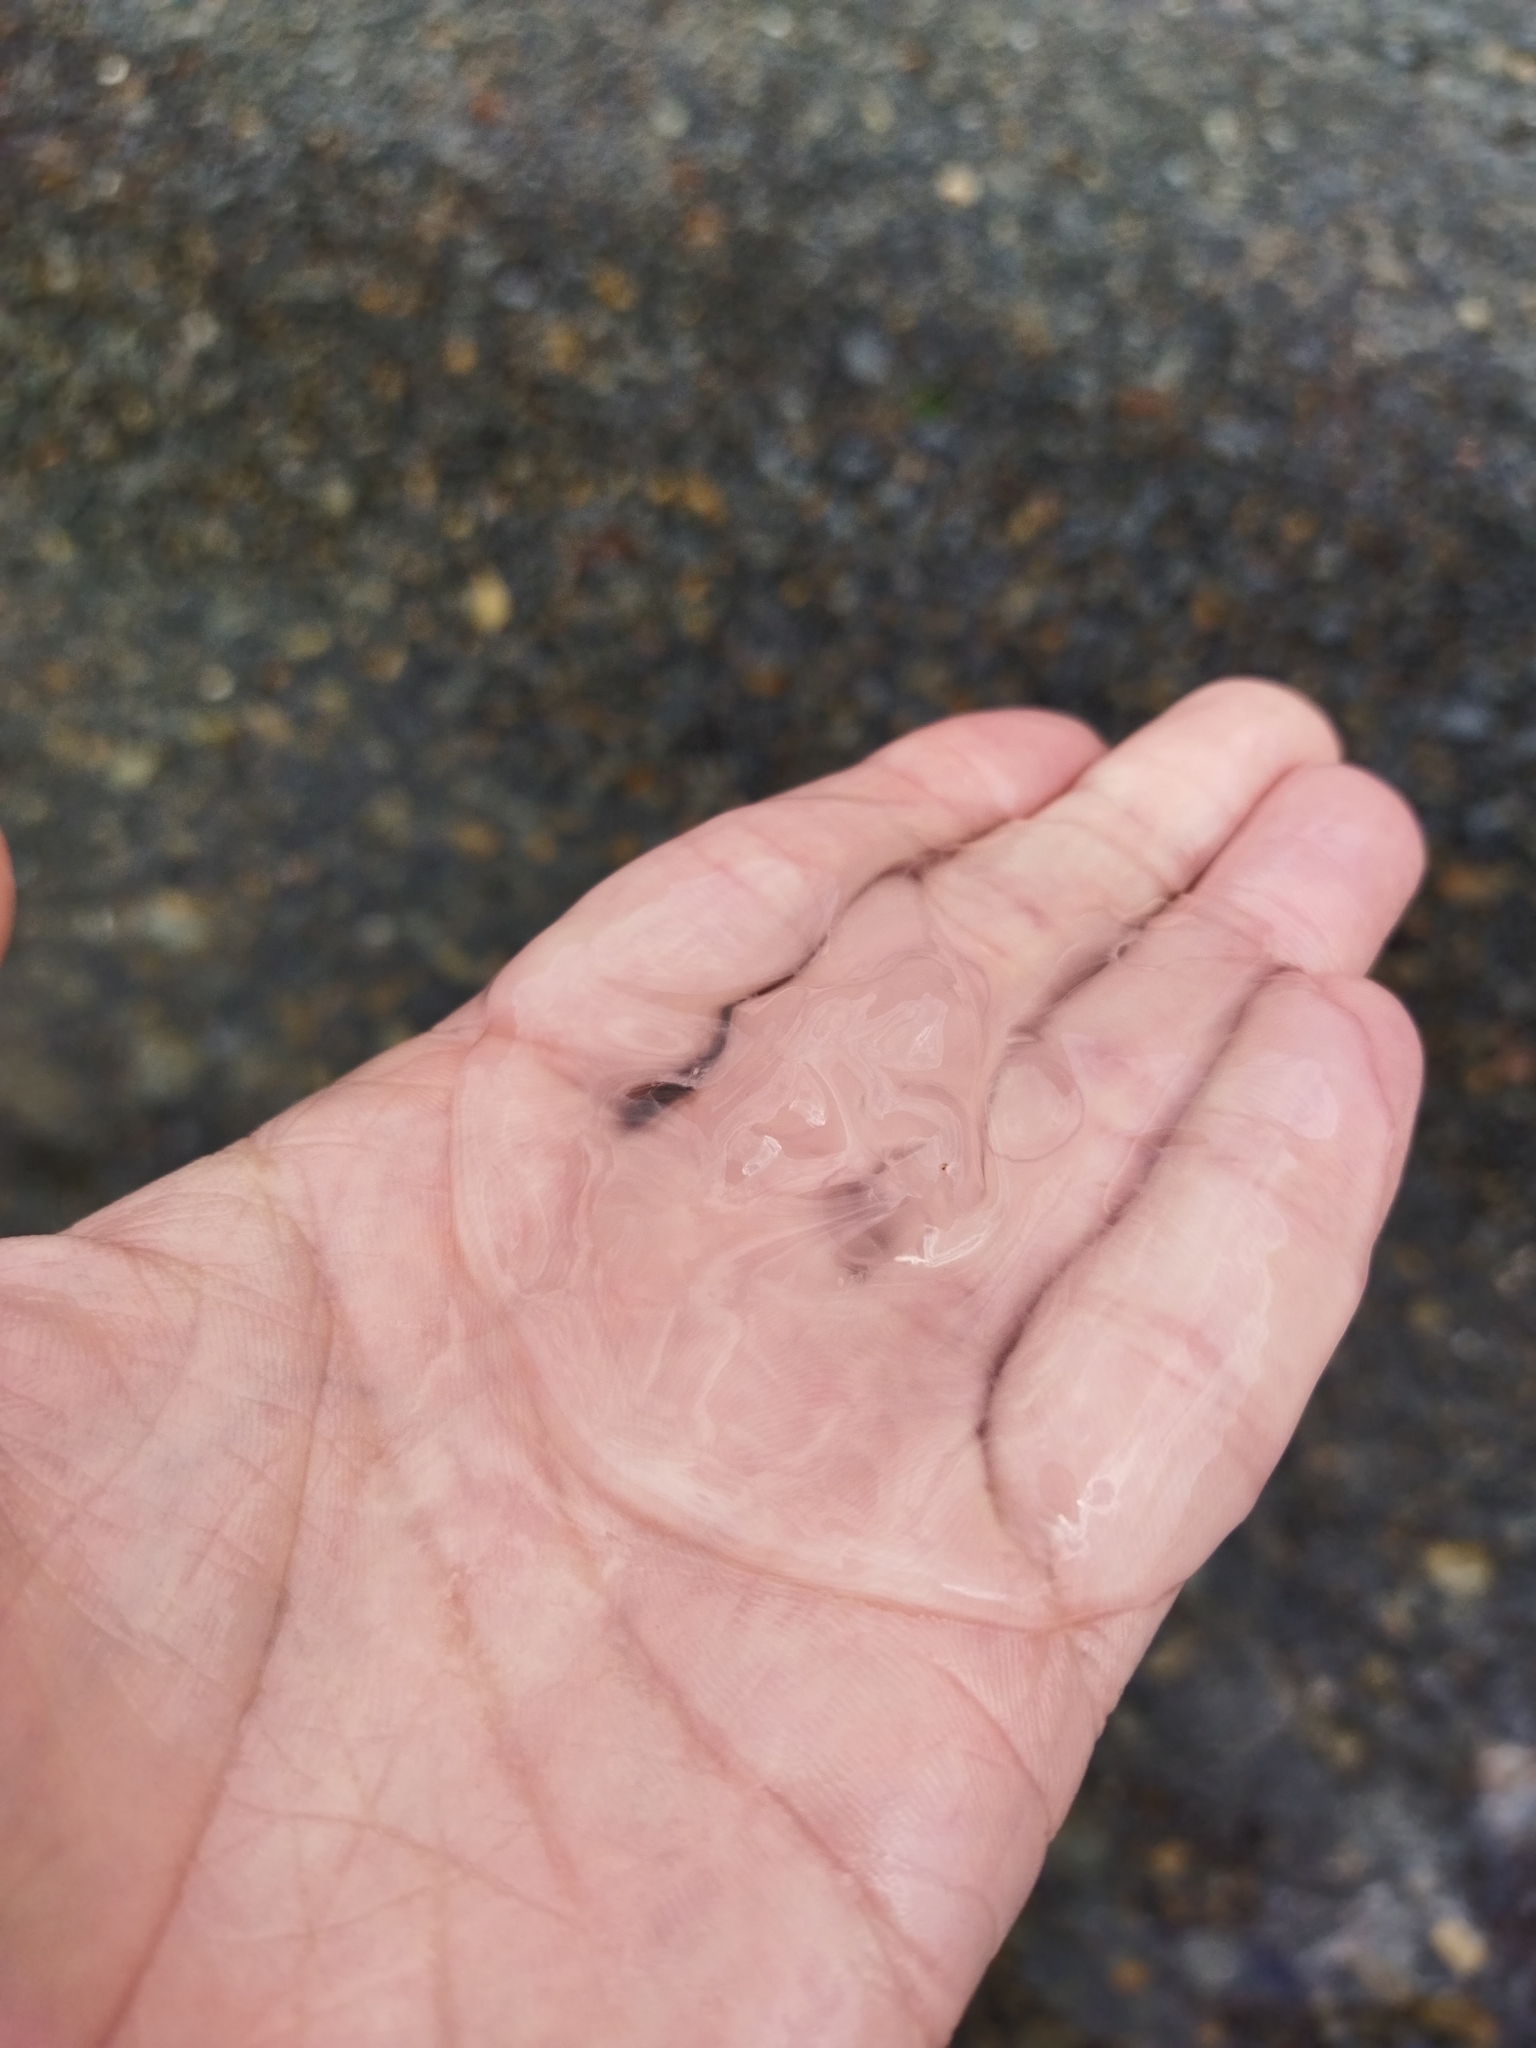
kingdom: Animalia
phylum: Cnidaria
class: Scyphozoa
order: Semaeostomeae
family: Ulmaridae
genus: Aurelia
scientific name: Aurelia aurita
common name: Moon jellyfish
